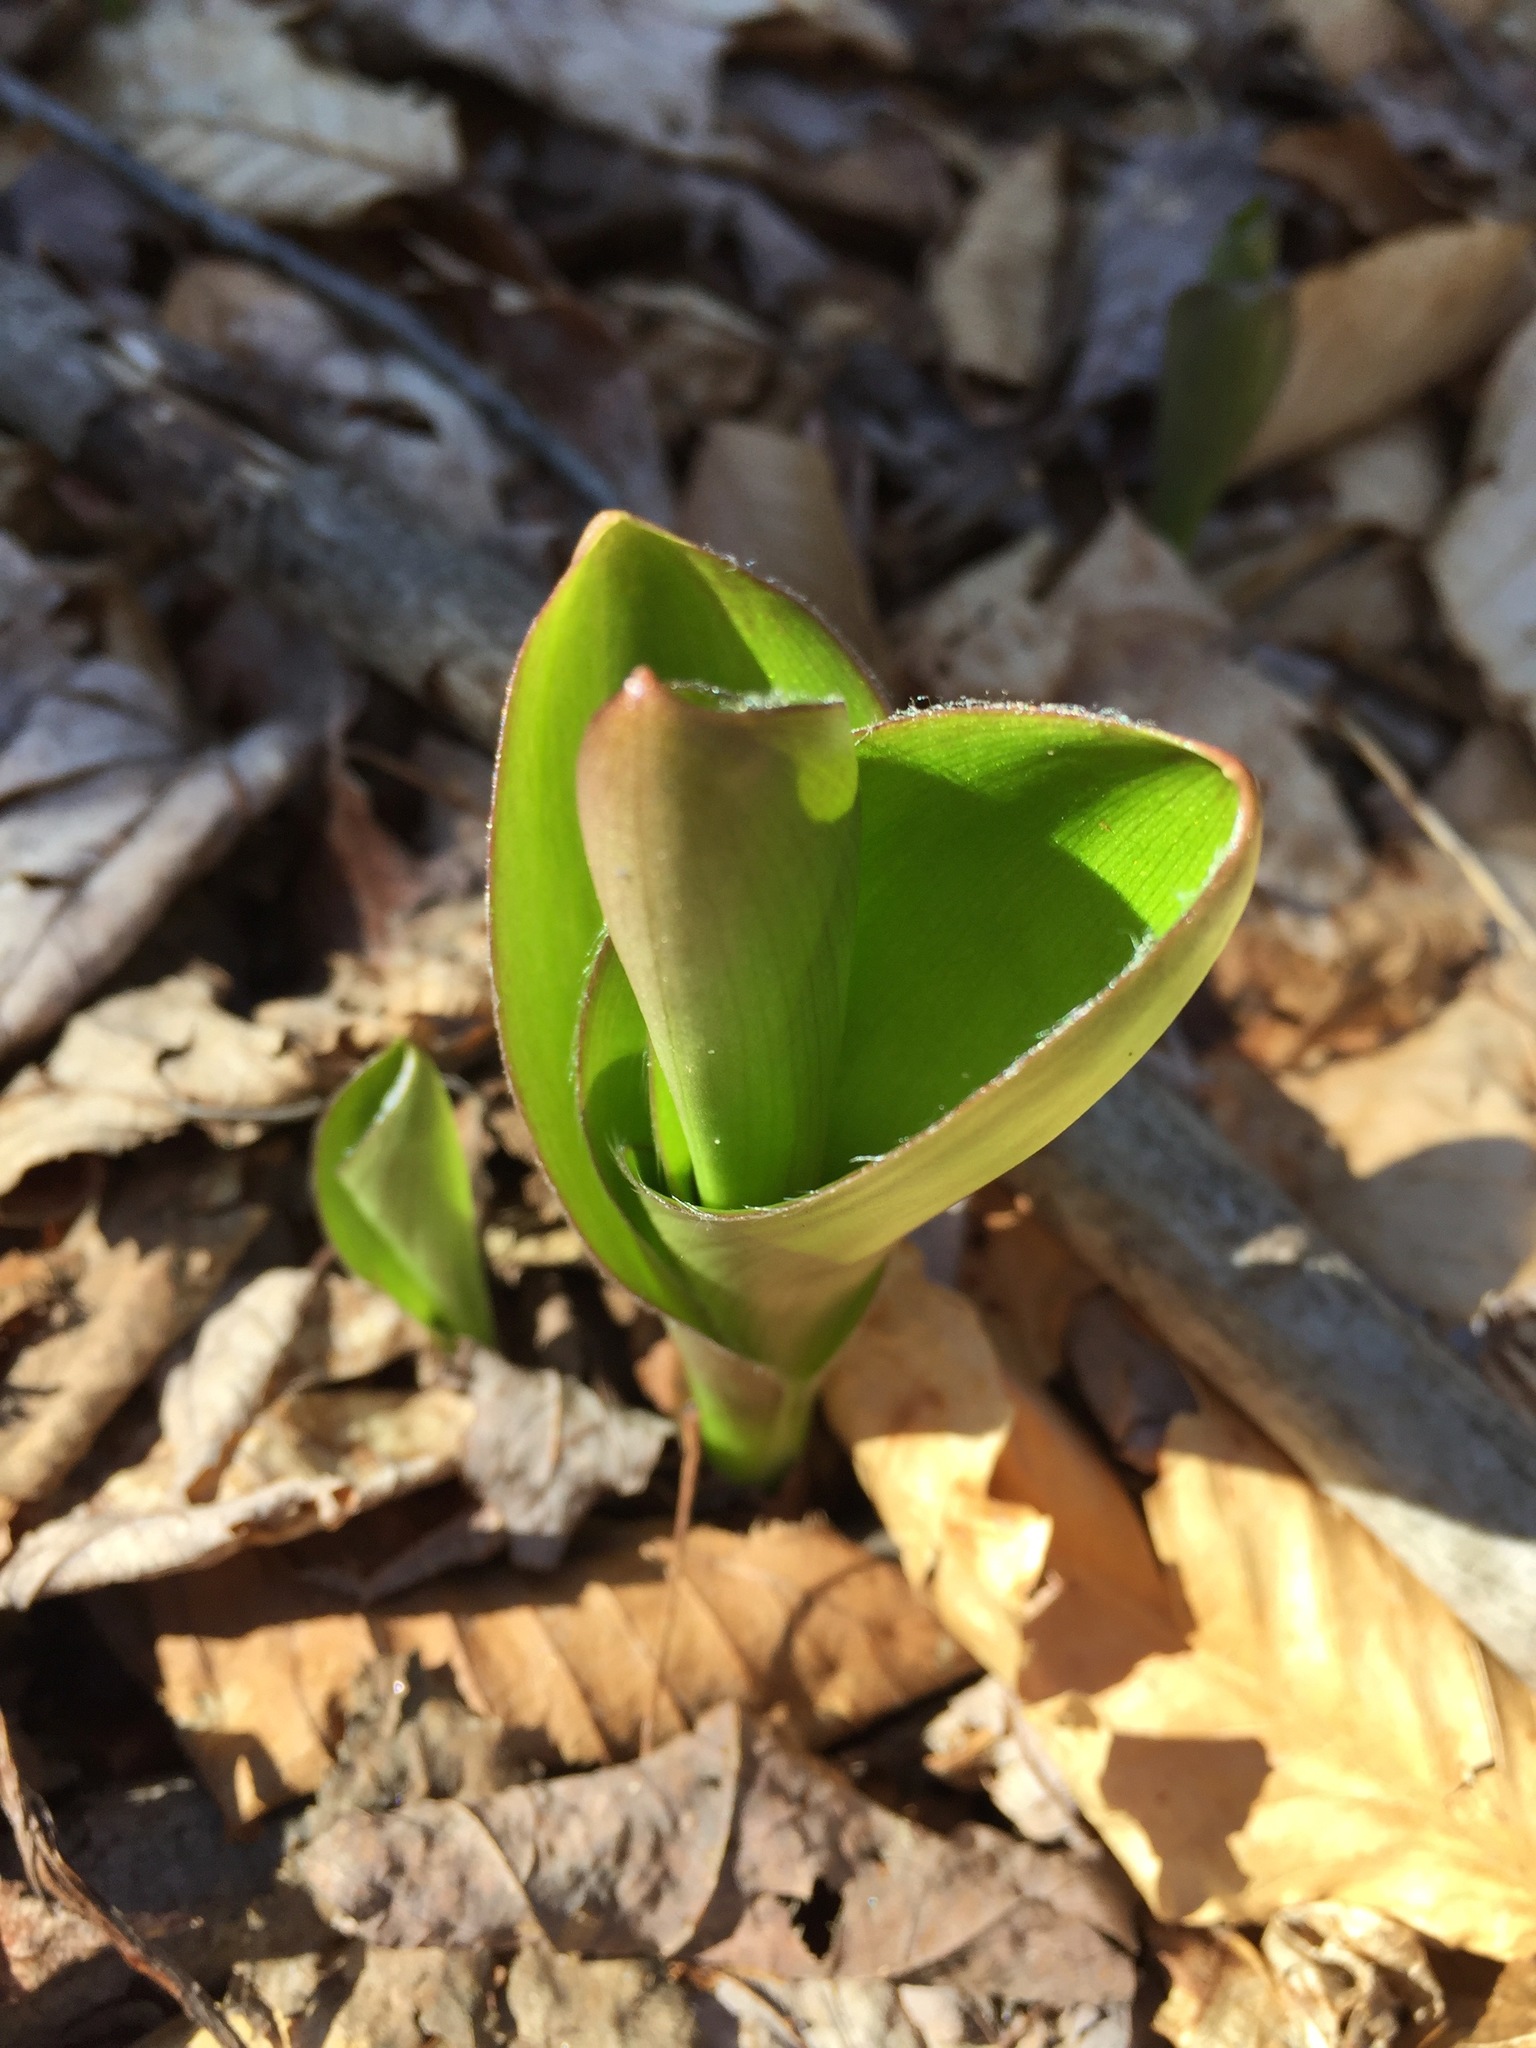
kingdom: Plantae
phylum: Tracheophyta
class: Liliopsida
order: Liliales
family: Liliaceae
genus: Clintonia
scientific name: Clintonia borealis
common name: Yellow clintonia
